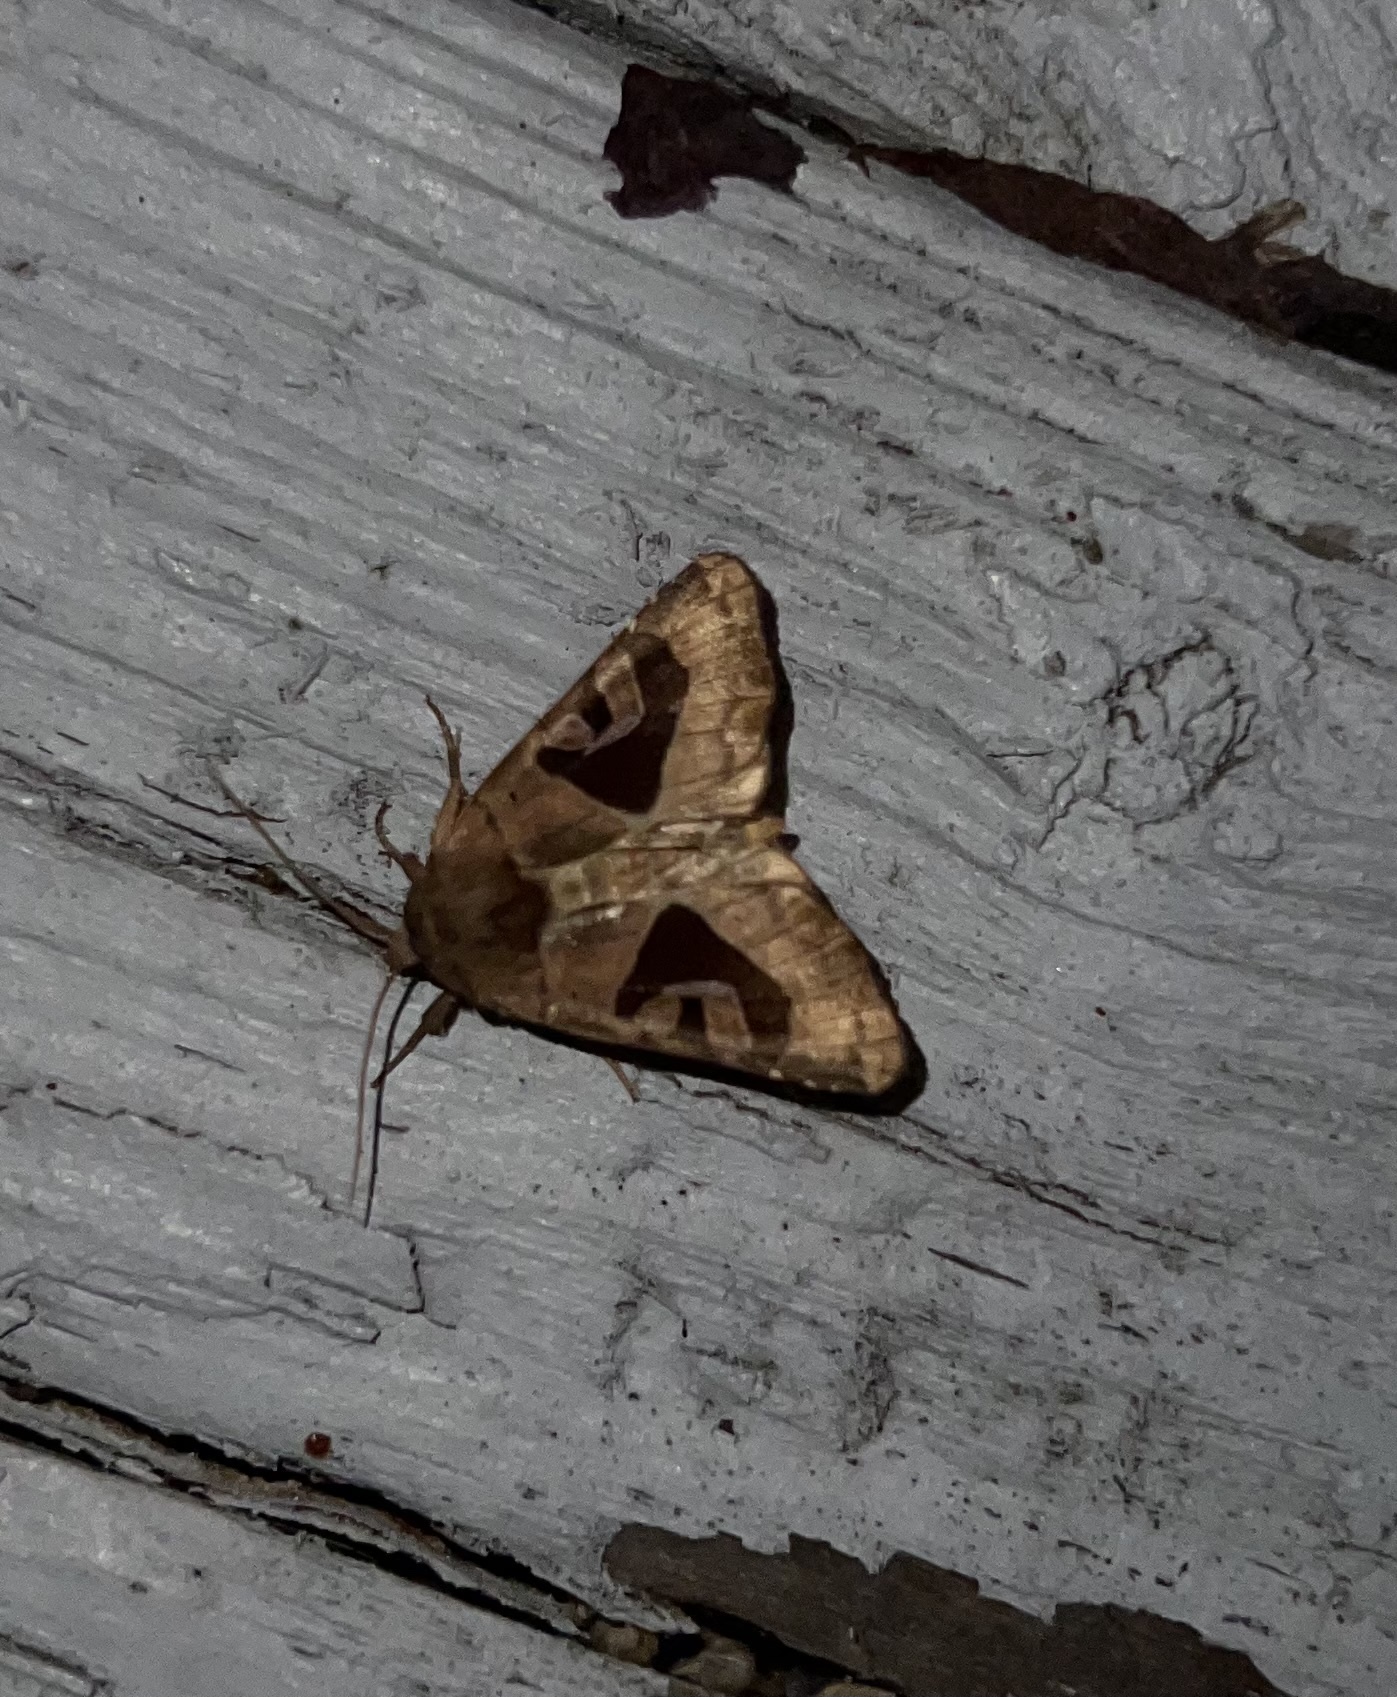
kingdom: Animalia
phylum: Arthropoda
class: Insecta
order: Lepidoptera
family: Noctuidae
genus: Conservula
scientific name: Conservula anodonta
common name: Sharp angle shades
